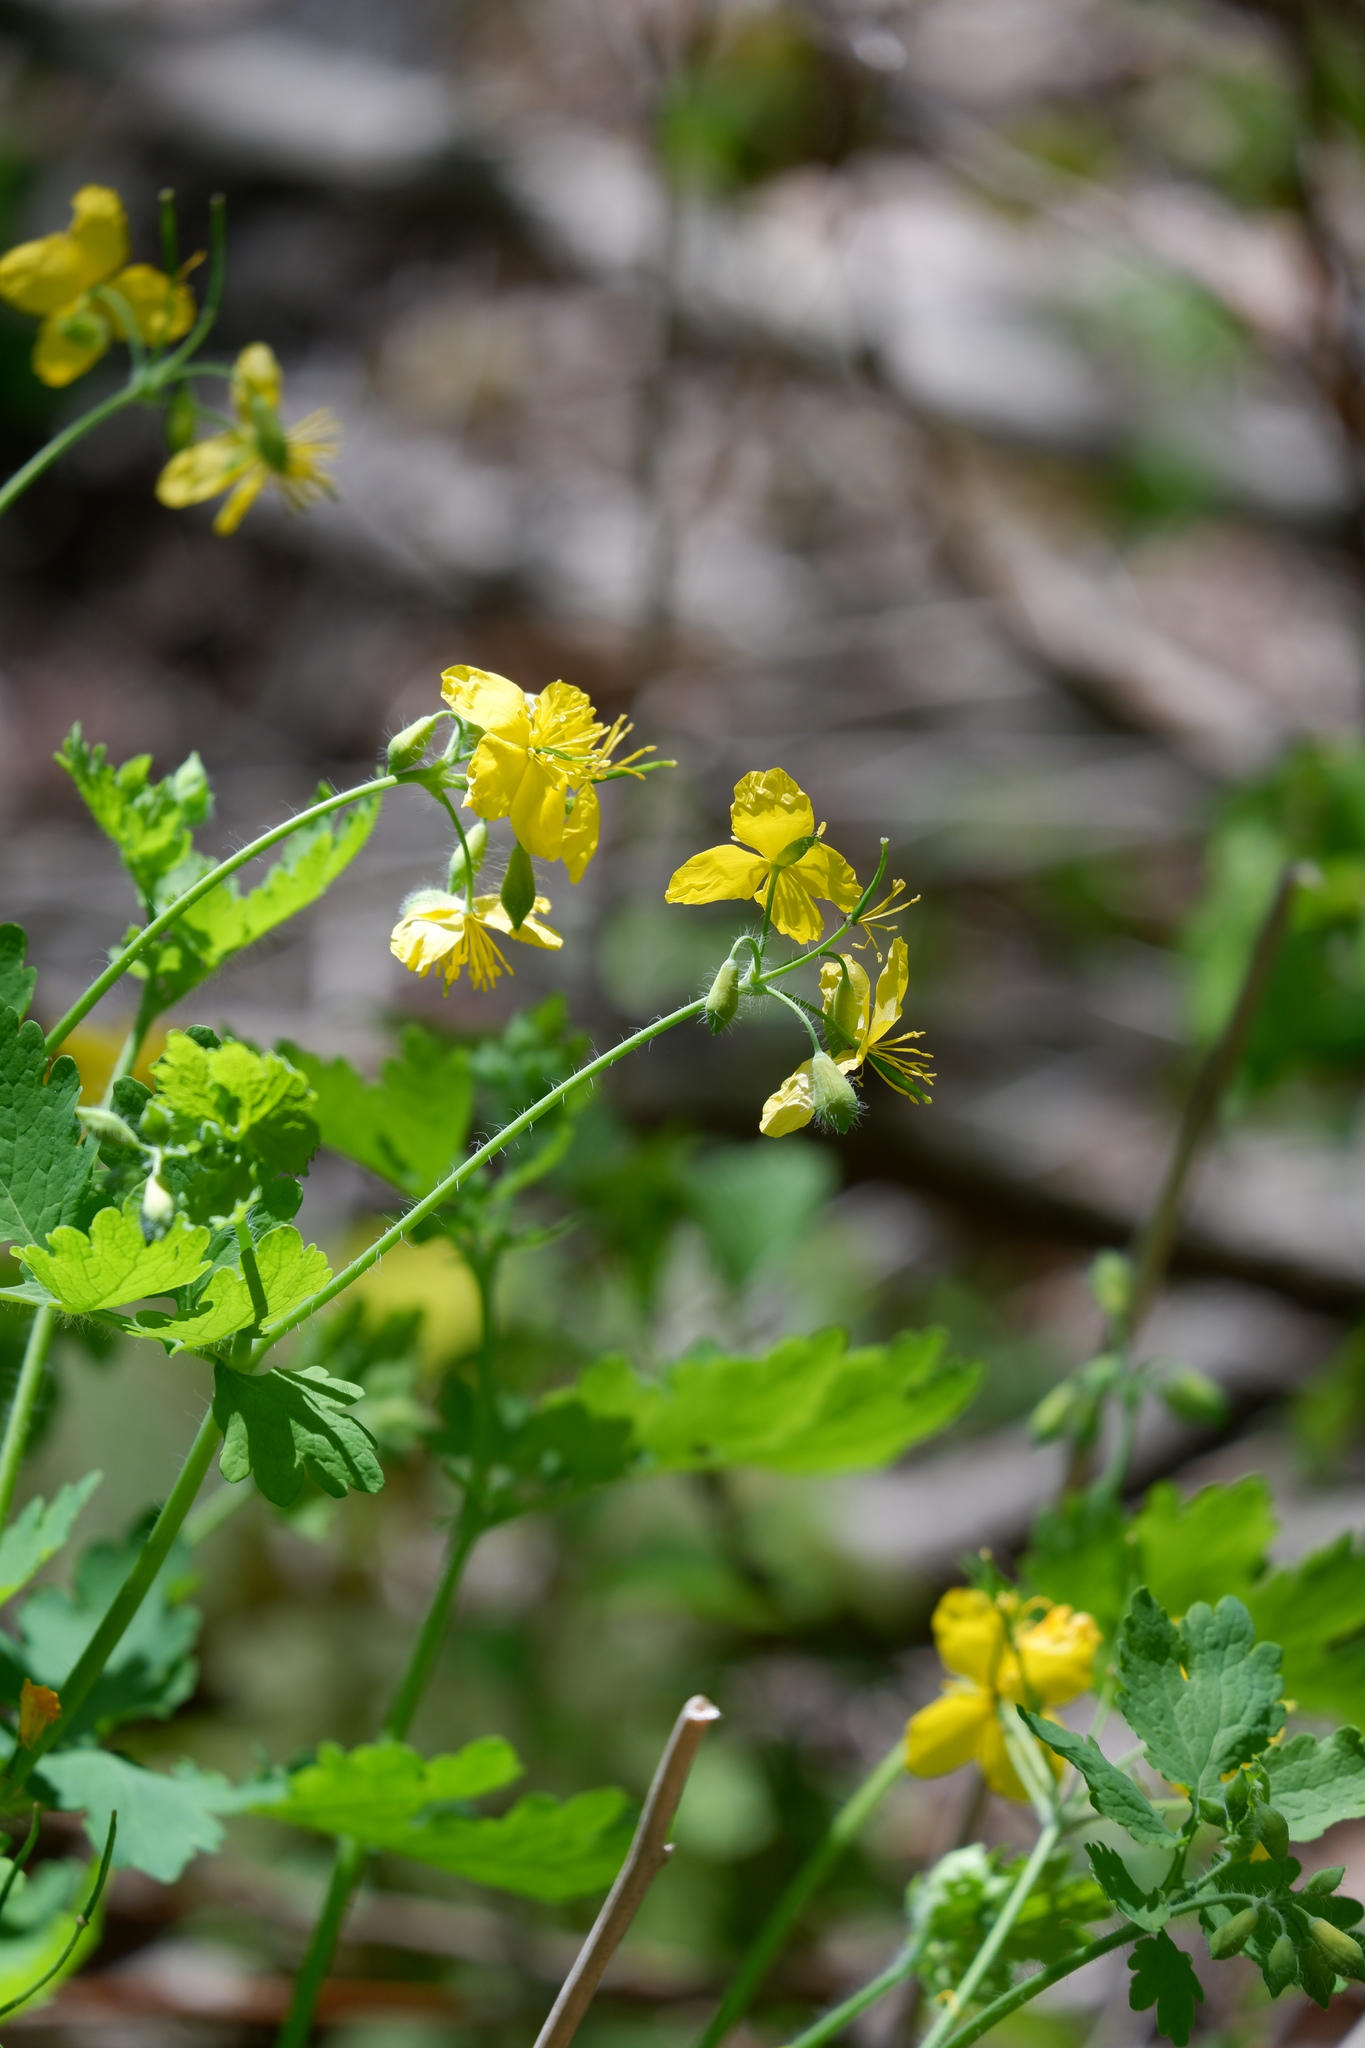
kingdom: Plantae
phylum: Tracheophyta
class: Magnoliopsida
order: Ranunculales
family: Papaveraceae
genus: Chelidonium
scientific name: Chelidonium majus
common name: Greater celandine
